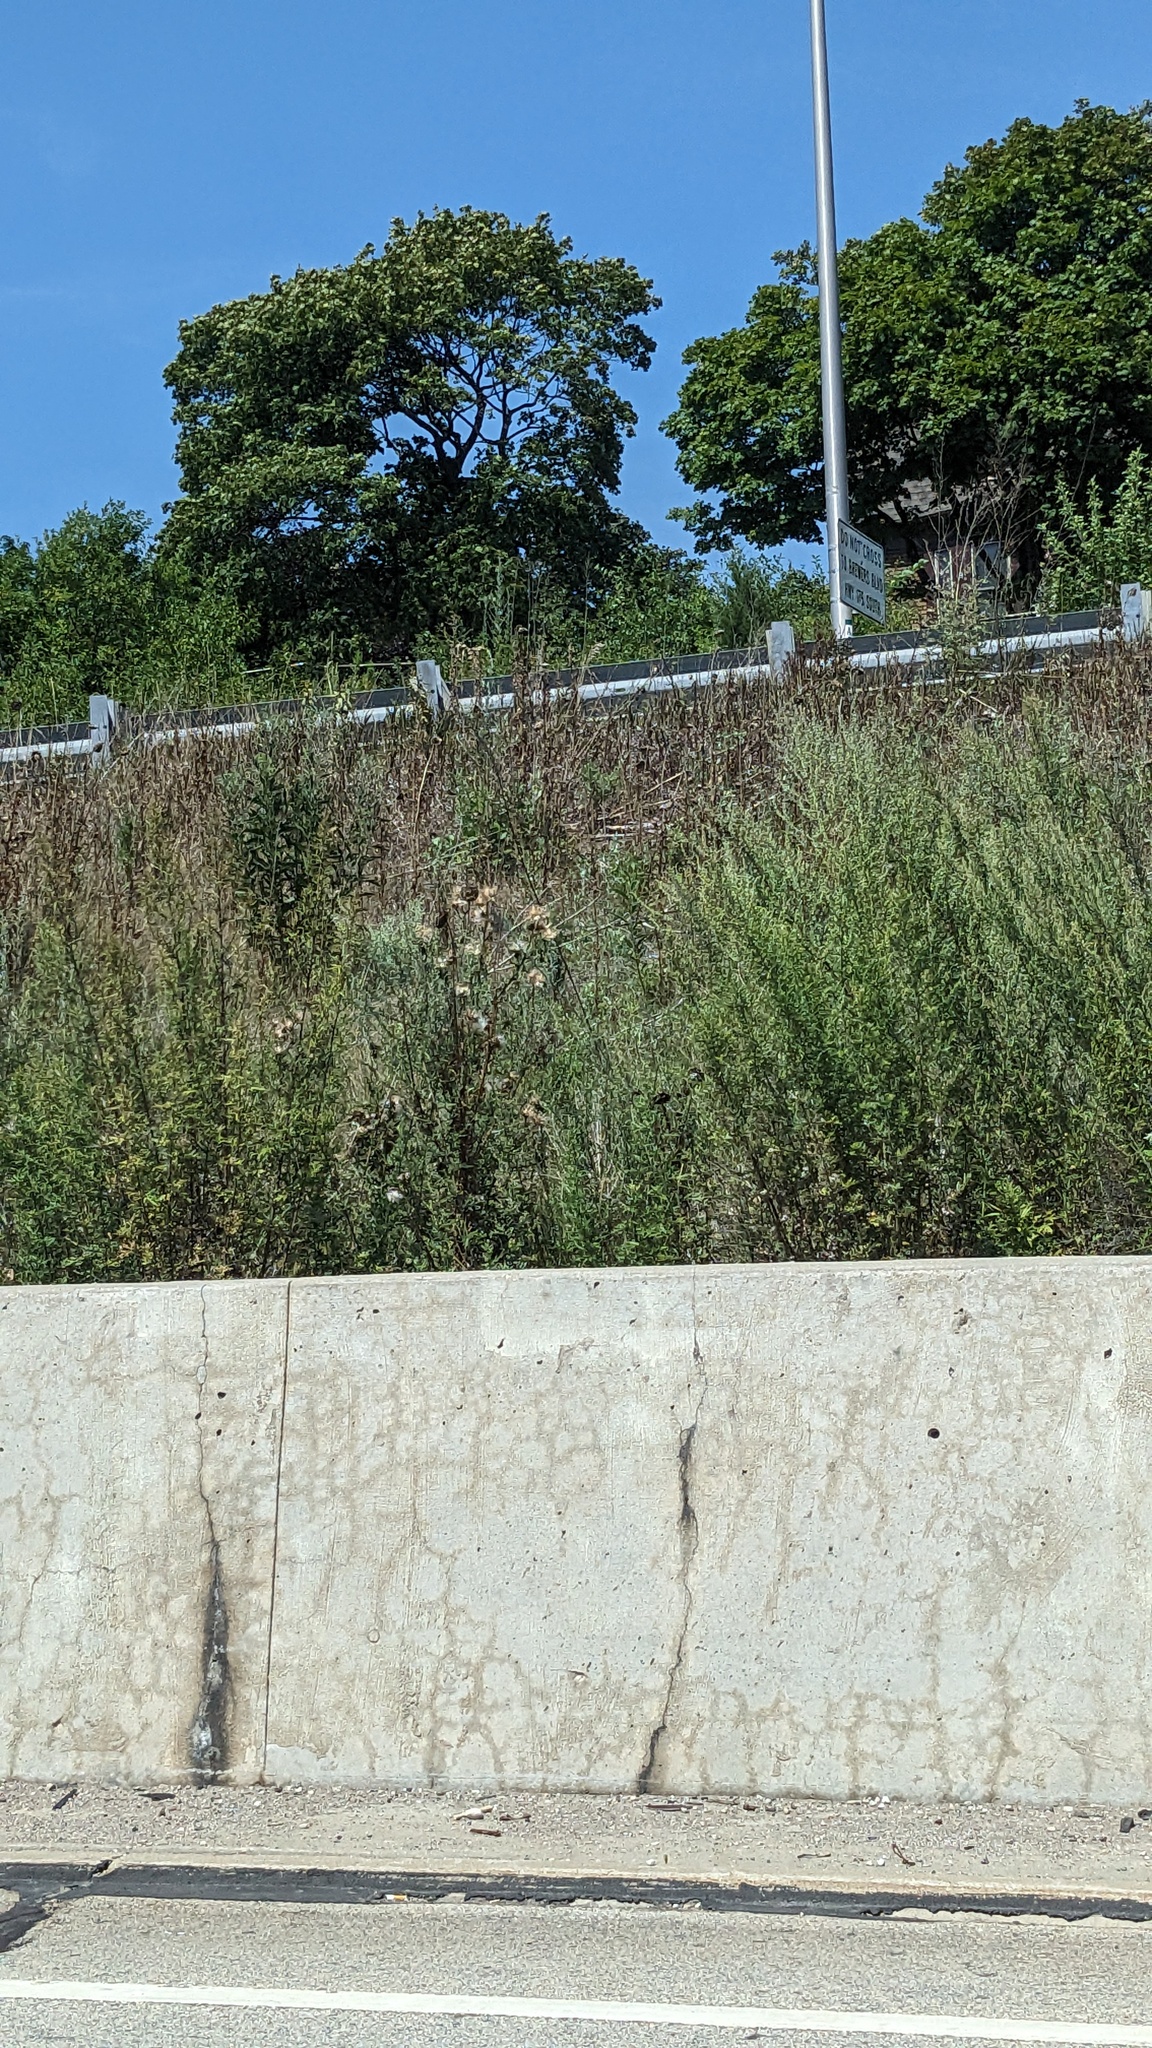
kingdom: Plantae
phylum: Tracheophyta
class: Magnoliopsida
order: Asterales
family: Asteraceae
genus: Cirsium
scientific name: Cirsium vulgare
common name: Bull thistle
